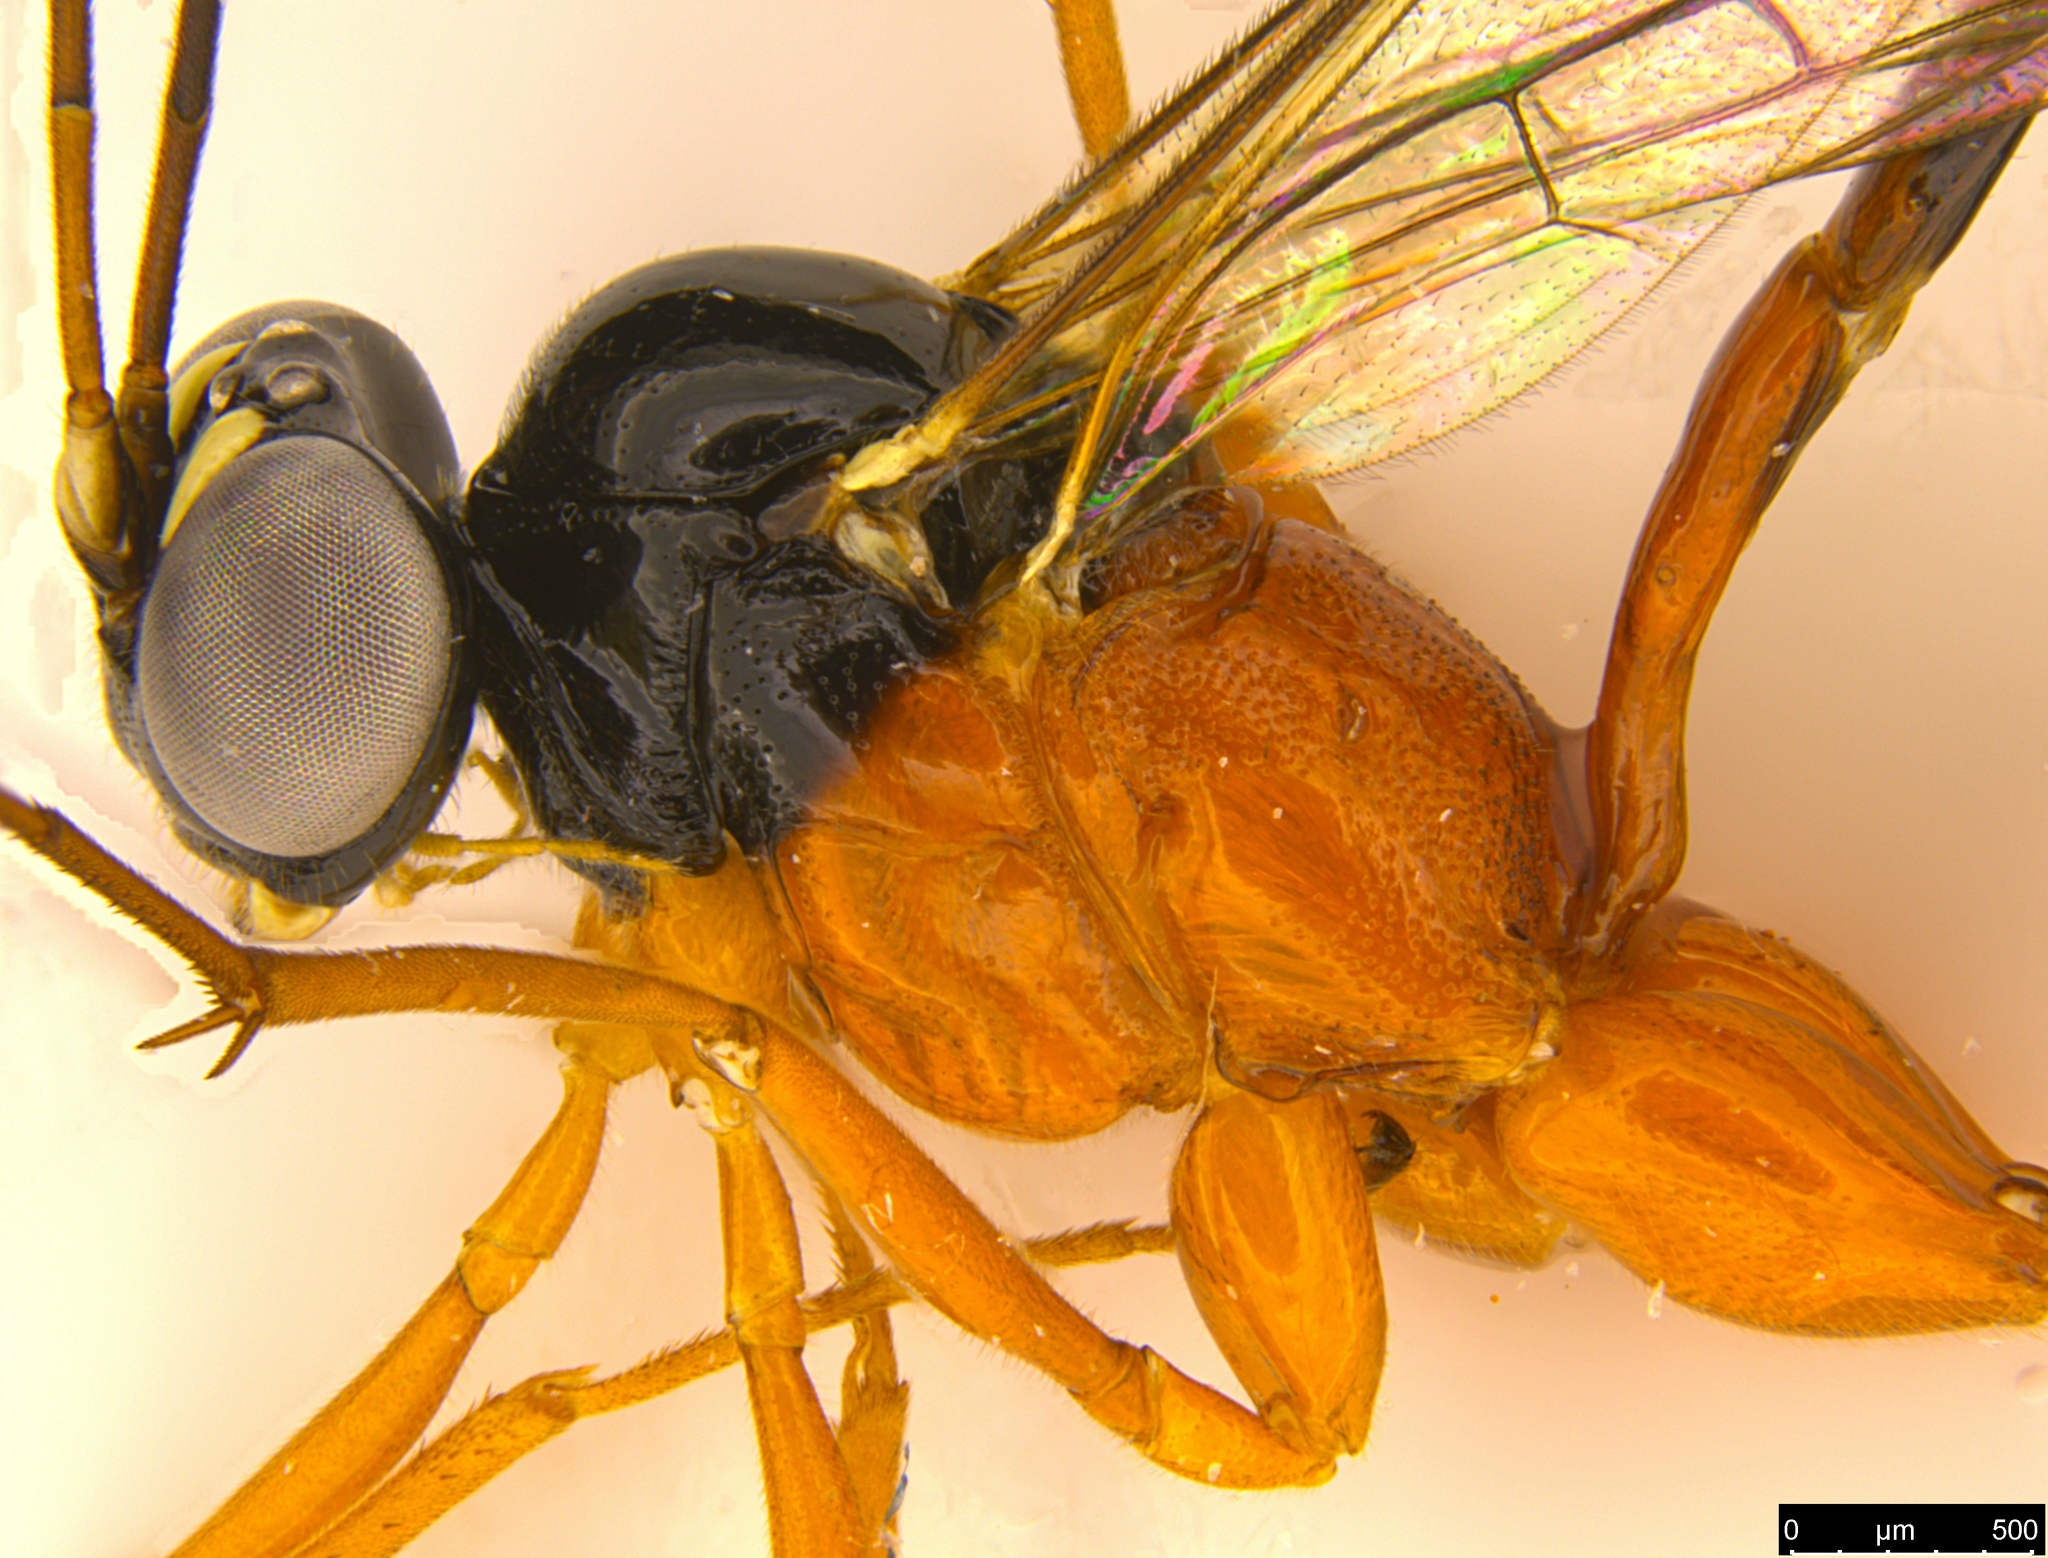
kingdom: Animalia
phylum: Arthropoda
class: Insecta
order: Hymenoptera
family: Ichneumonidae
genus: Leptobatopsis
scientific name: Leptobatopsis mesominiata
